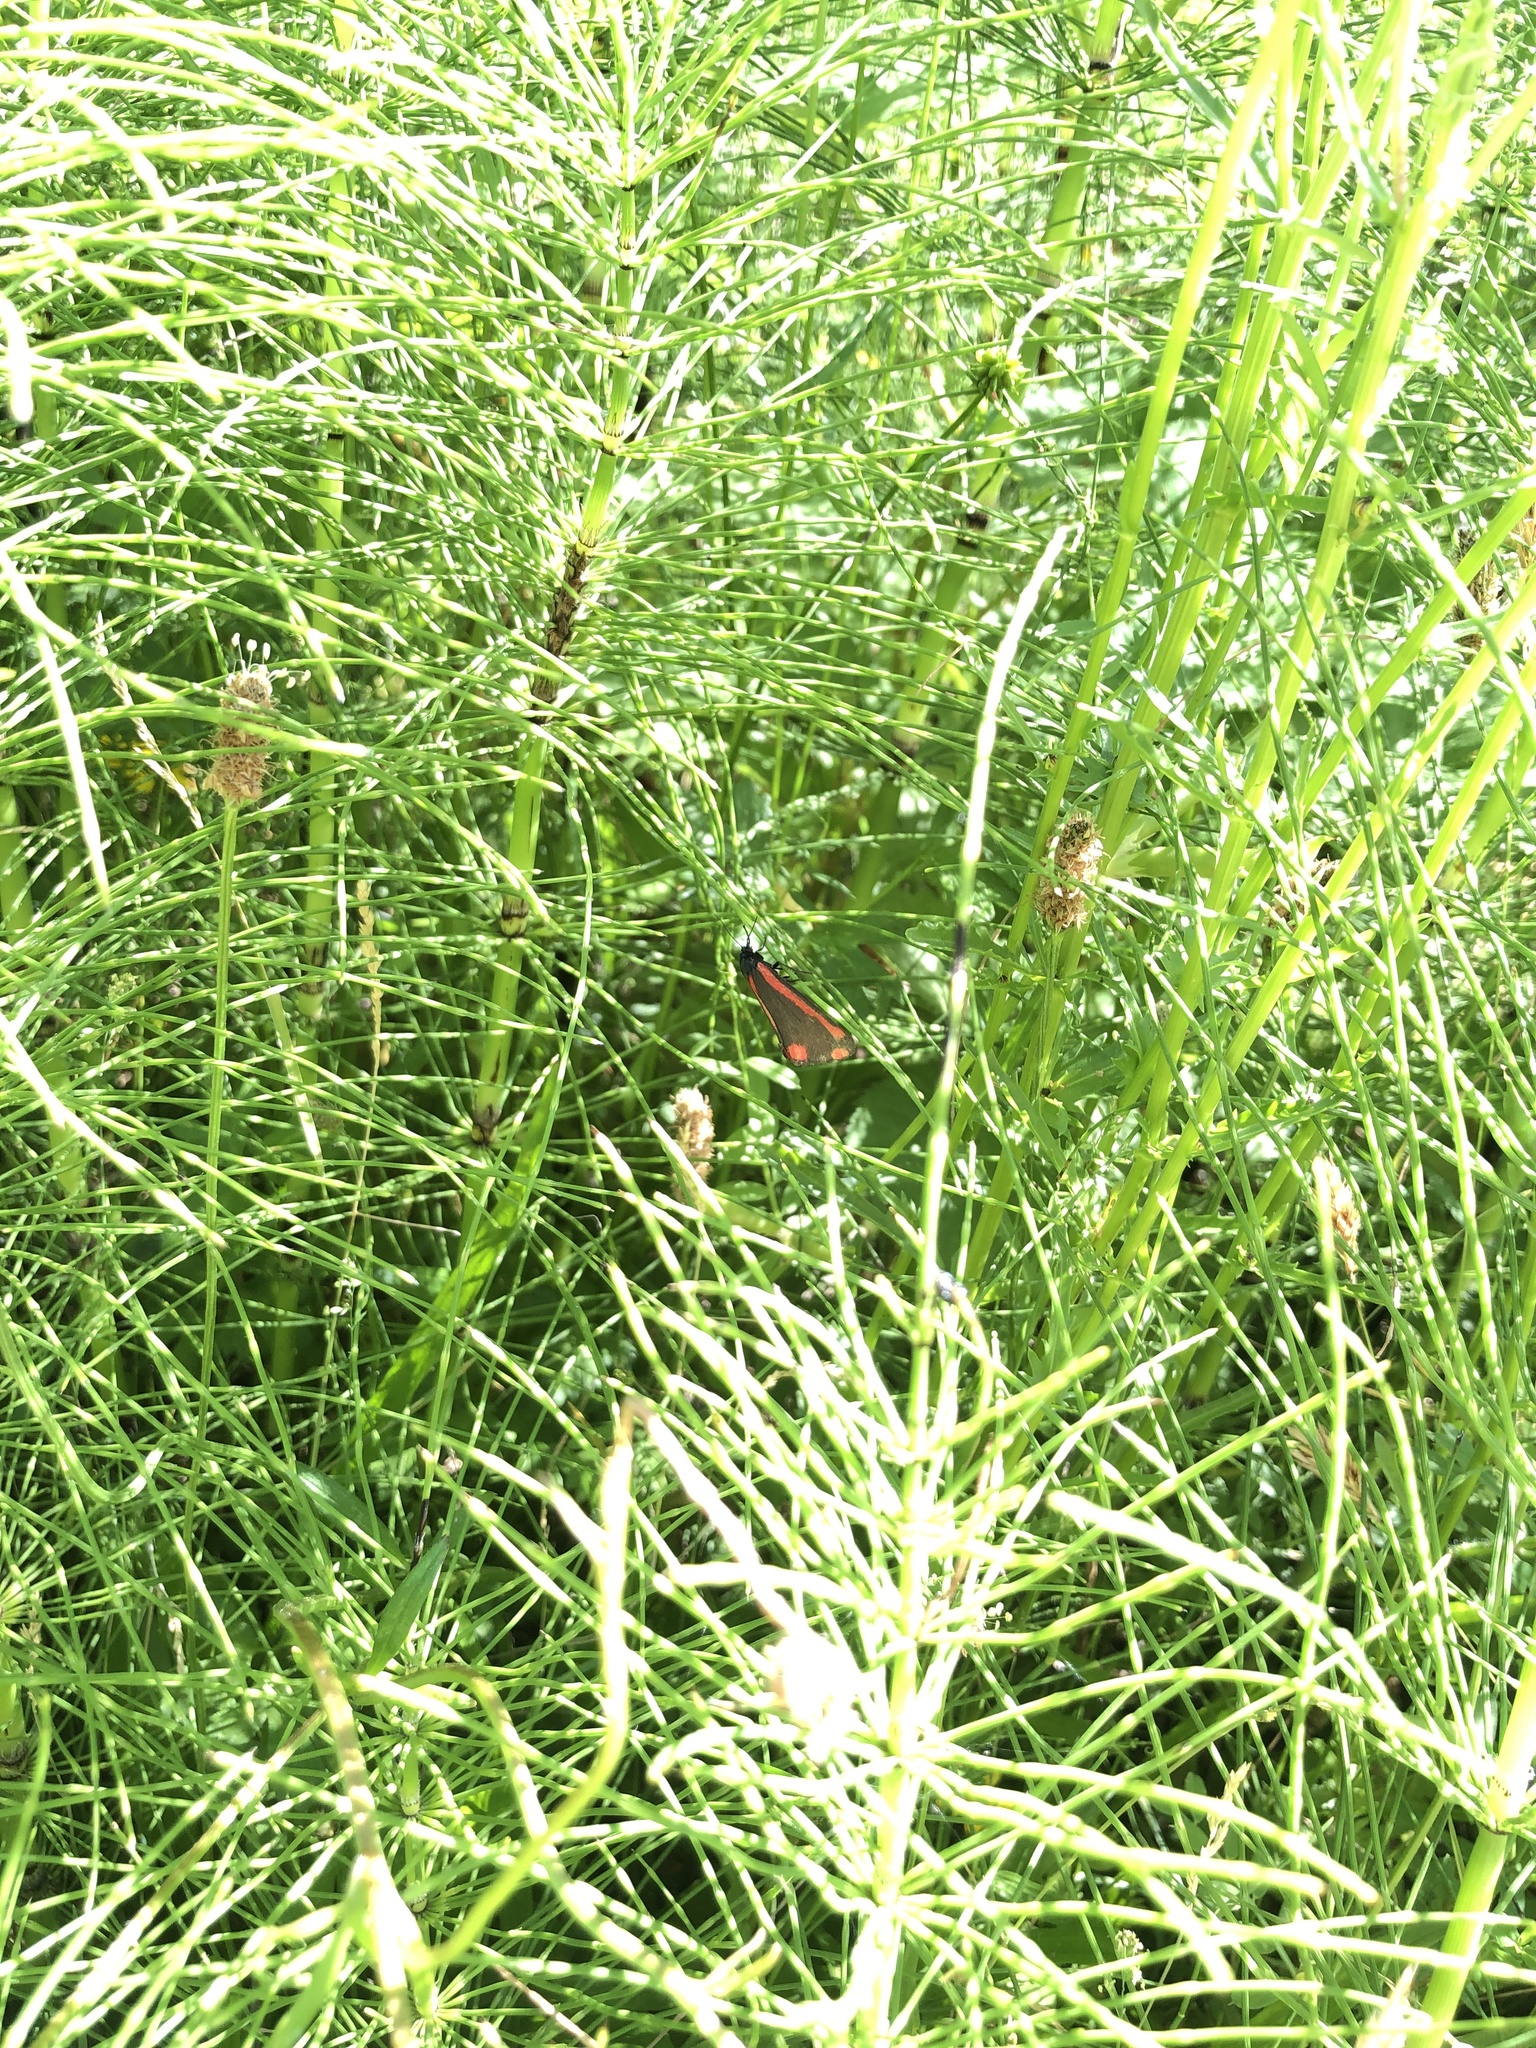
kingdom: Animalia
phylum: Arthropoda
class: Insecta
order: Lepidoptera
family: Erebidae
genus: Tyria
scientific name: Tyria jacobaeae
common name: Cinnabar
